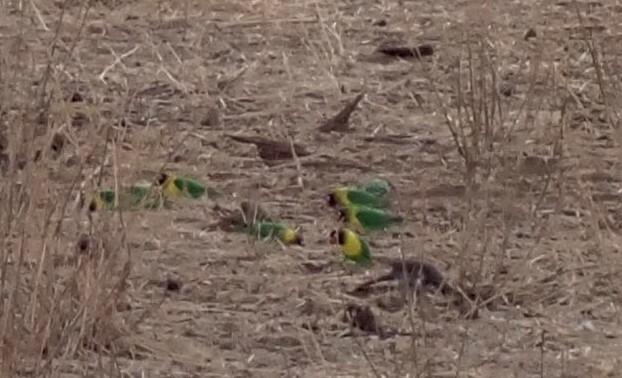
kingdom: Animalia
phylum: Chordata
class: Aves
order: Psittaciformes
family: Psittacidae
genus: Agapornis
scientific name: Agapornis personatus
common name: Yellow-collared lovebird
